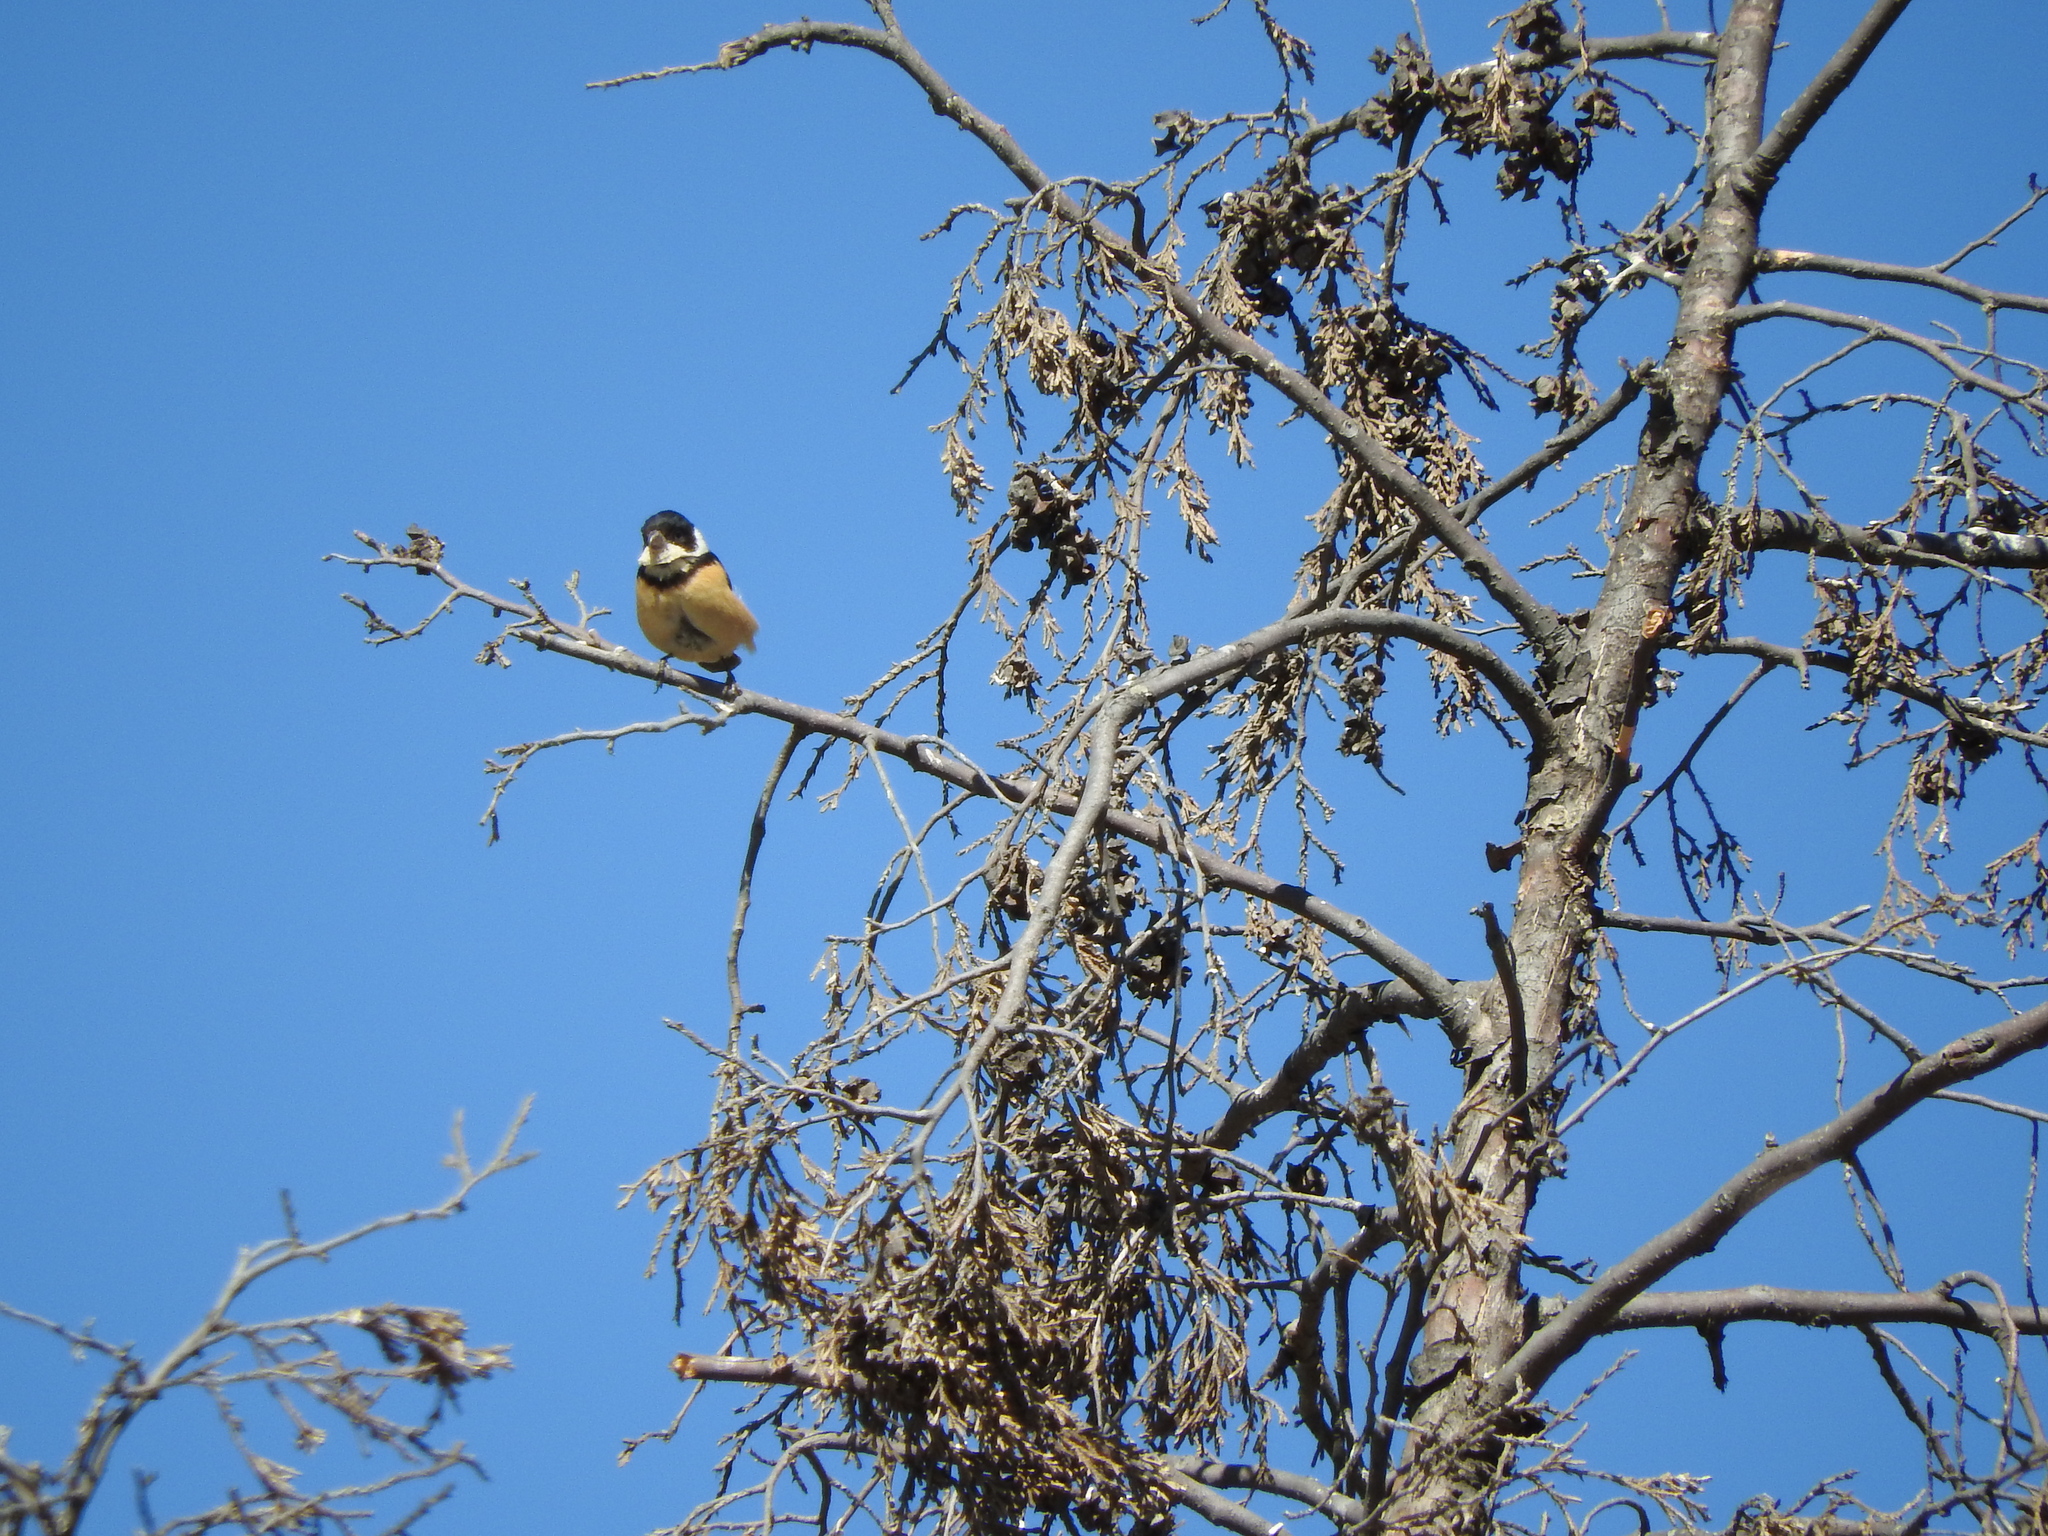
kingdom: Animalia
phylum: Chordata
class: Aves
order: Passeriformes
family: Thraupidae
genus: Sporophila
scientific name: Sporophila torqueola
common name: White-collared seedeater
